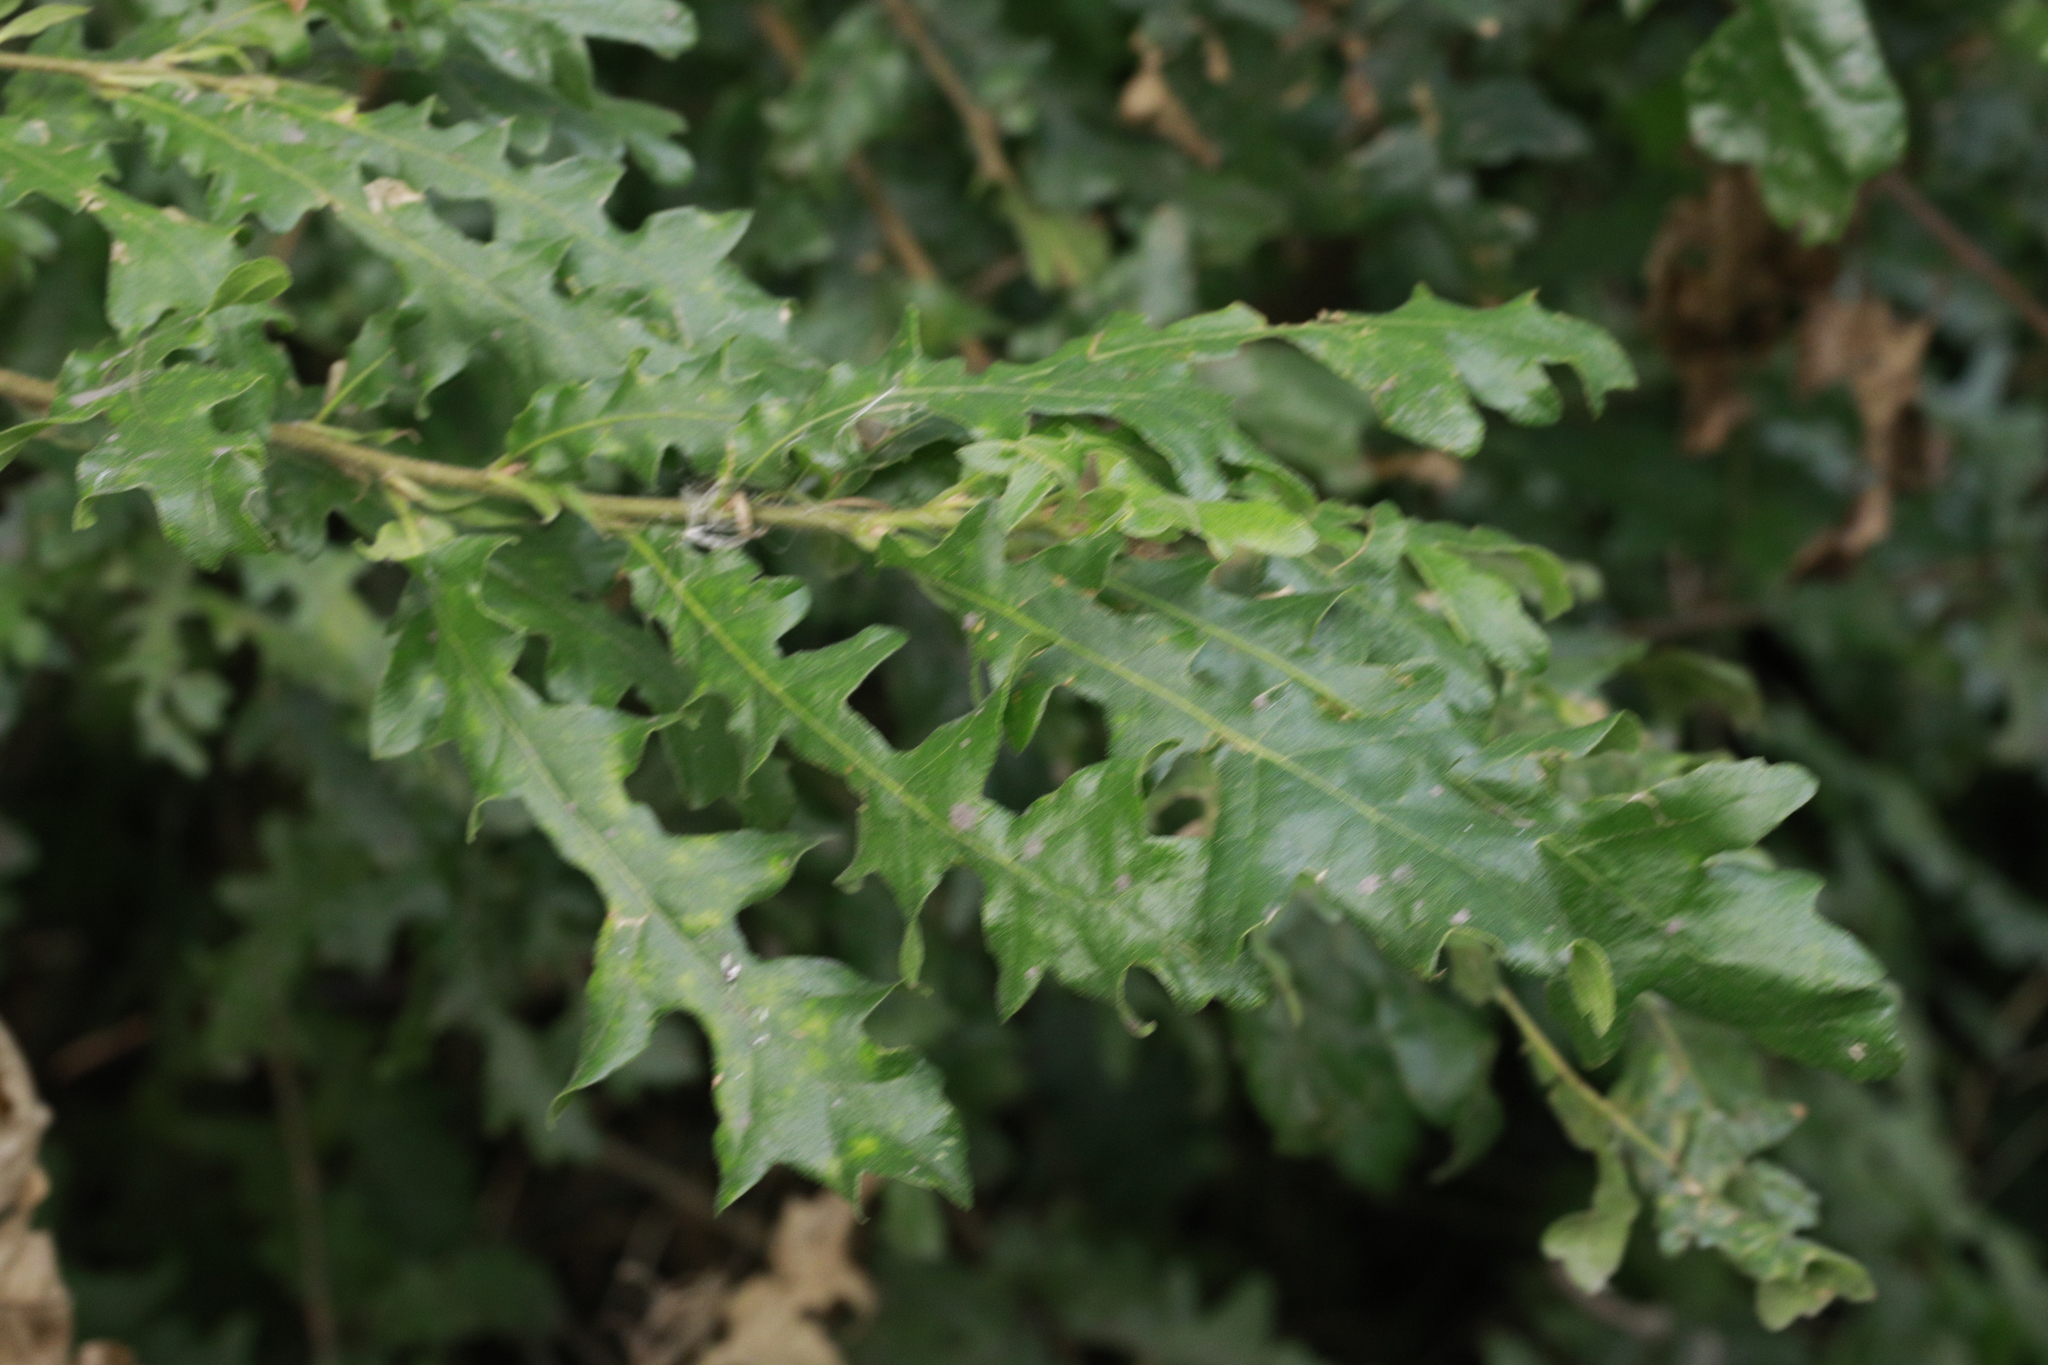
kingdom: Plantae
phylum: Tracheophyta
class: Magnoliopsida
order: Fagales
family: Fagaceae
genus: Quercus
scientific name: Quercus cerris
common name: Turkey oak
